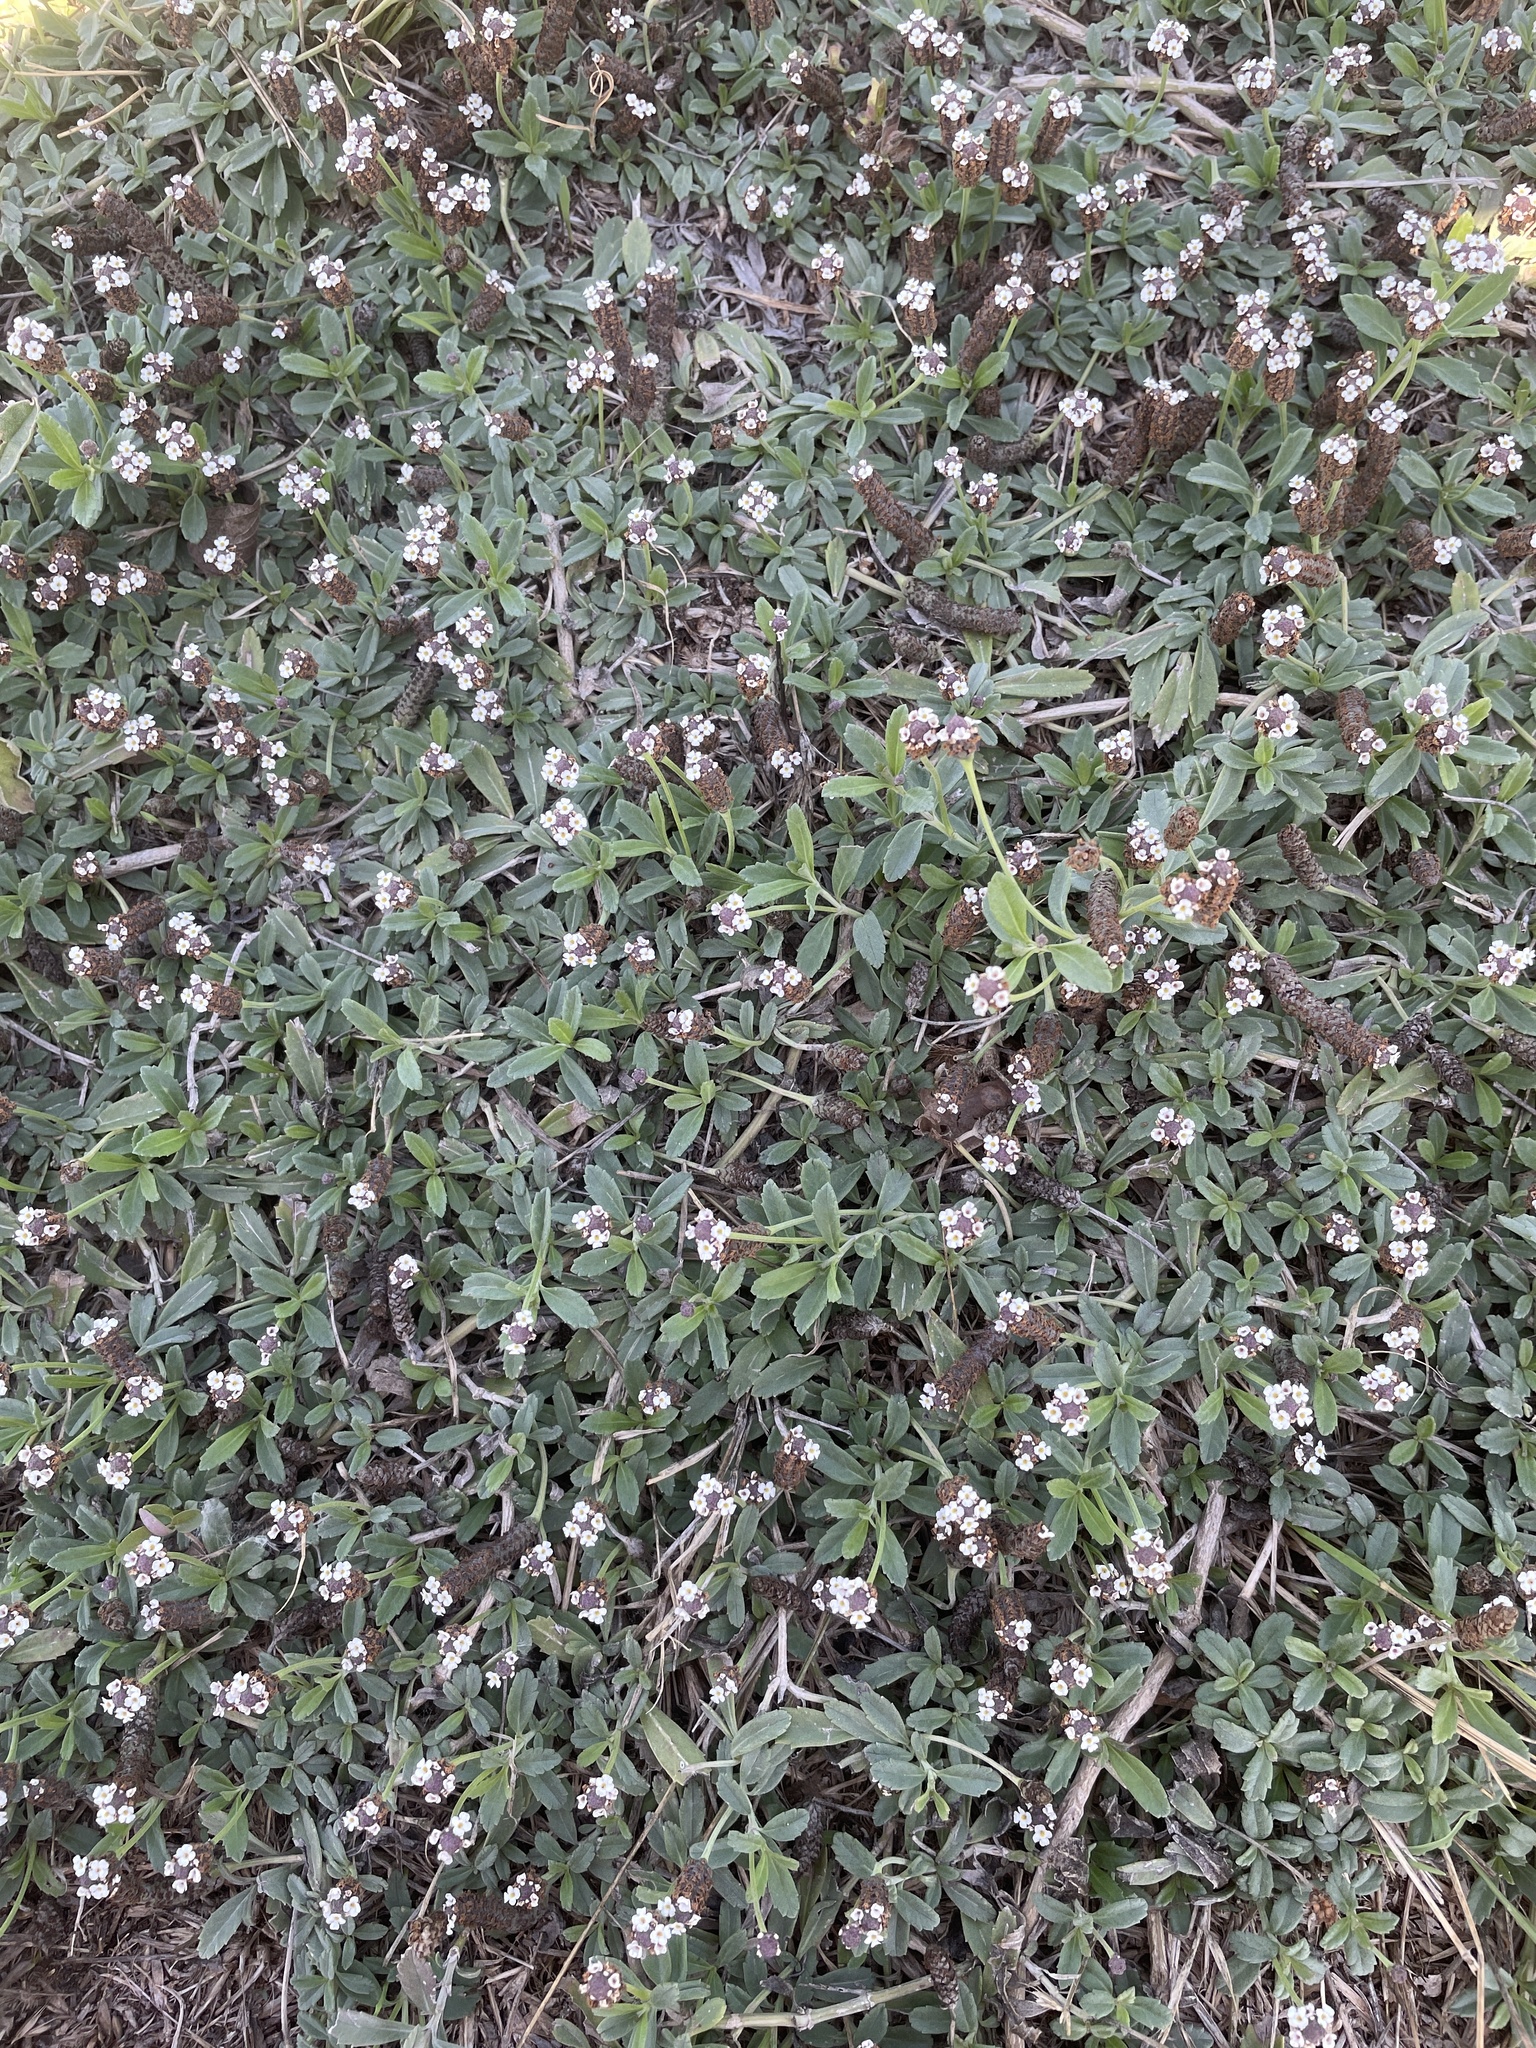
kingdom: Plantae
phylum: Tracheophyta
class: Magnoliopsida
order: Lamiales
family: Verbenaceae
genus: Phyla
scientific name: Phyla nodiflora
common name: Frogfruit
